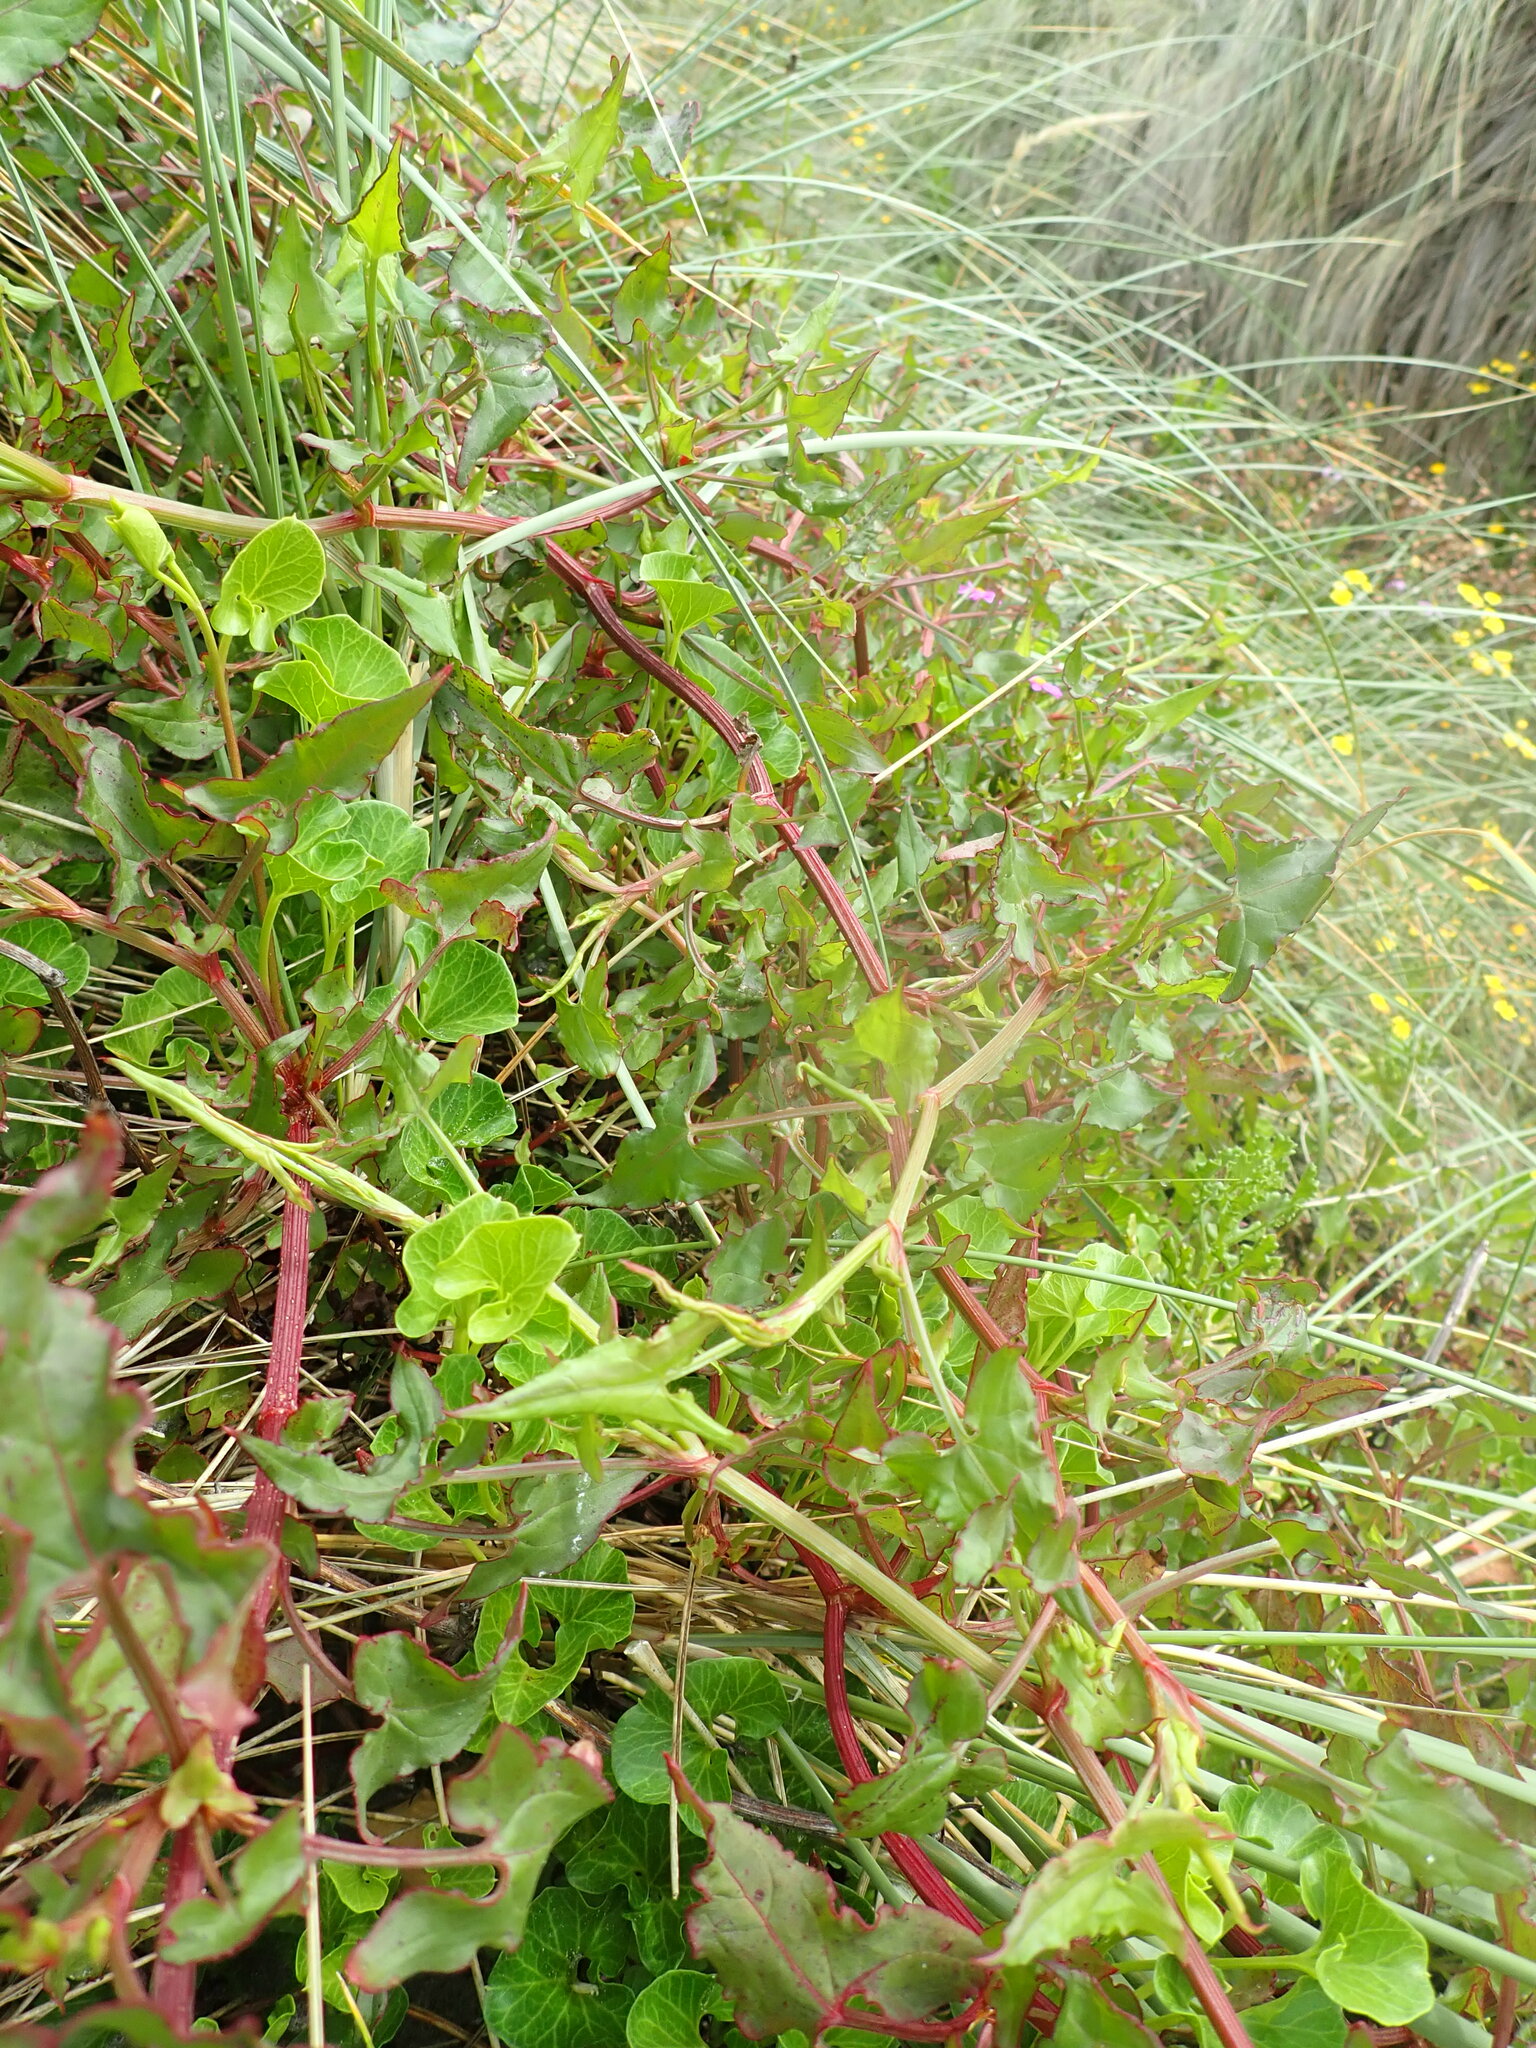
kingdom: Plantae
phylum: Tracheophyta
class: Magnoliopsida
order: Caryophyllales
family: Polygonaceae
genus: Rumex
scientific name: Rumex sagittatus
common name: Climbing dock
